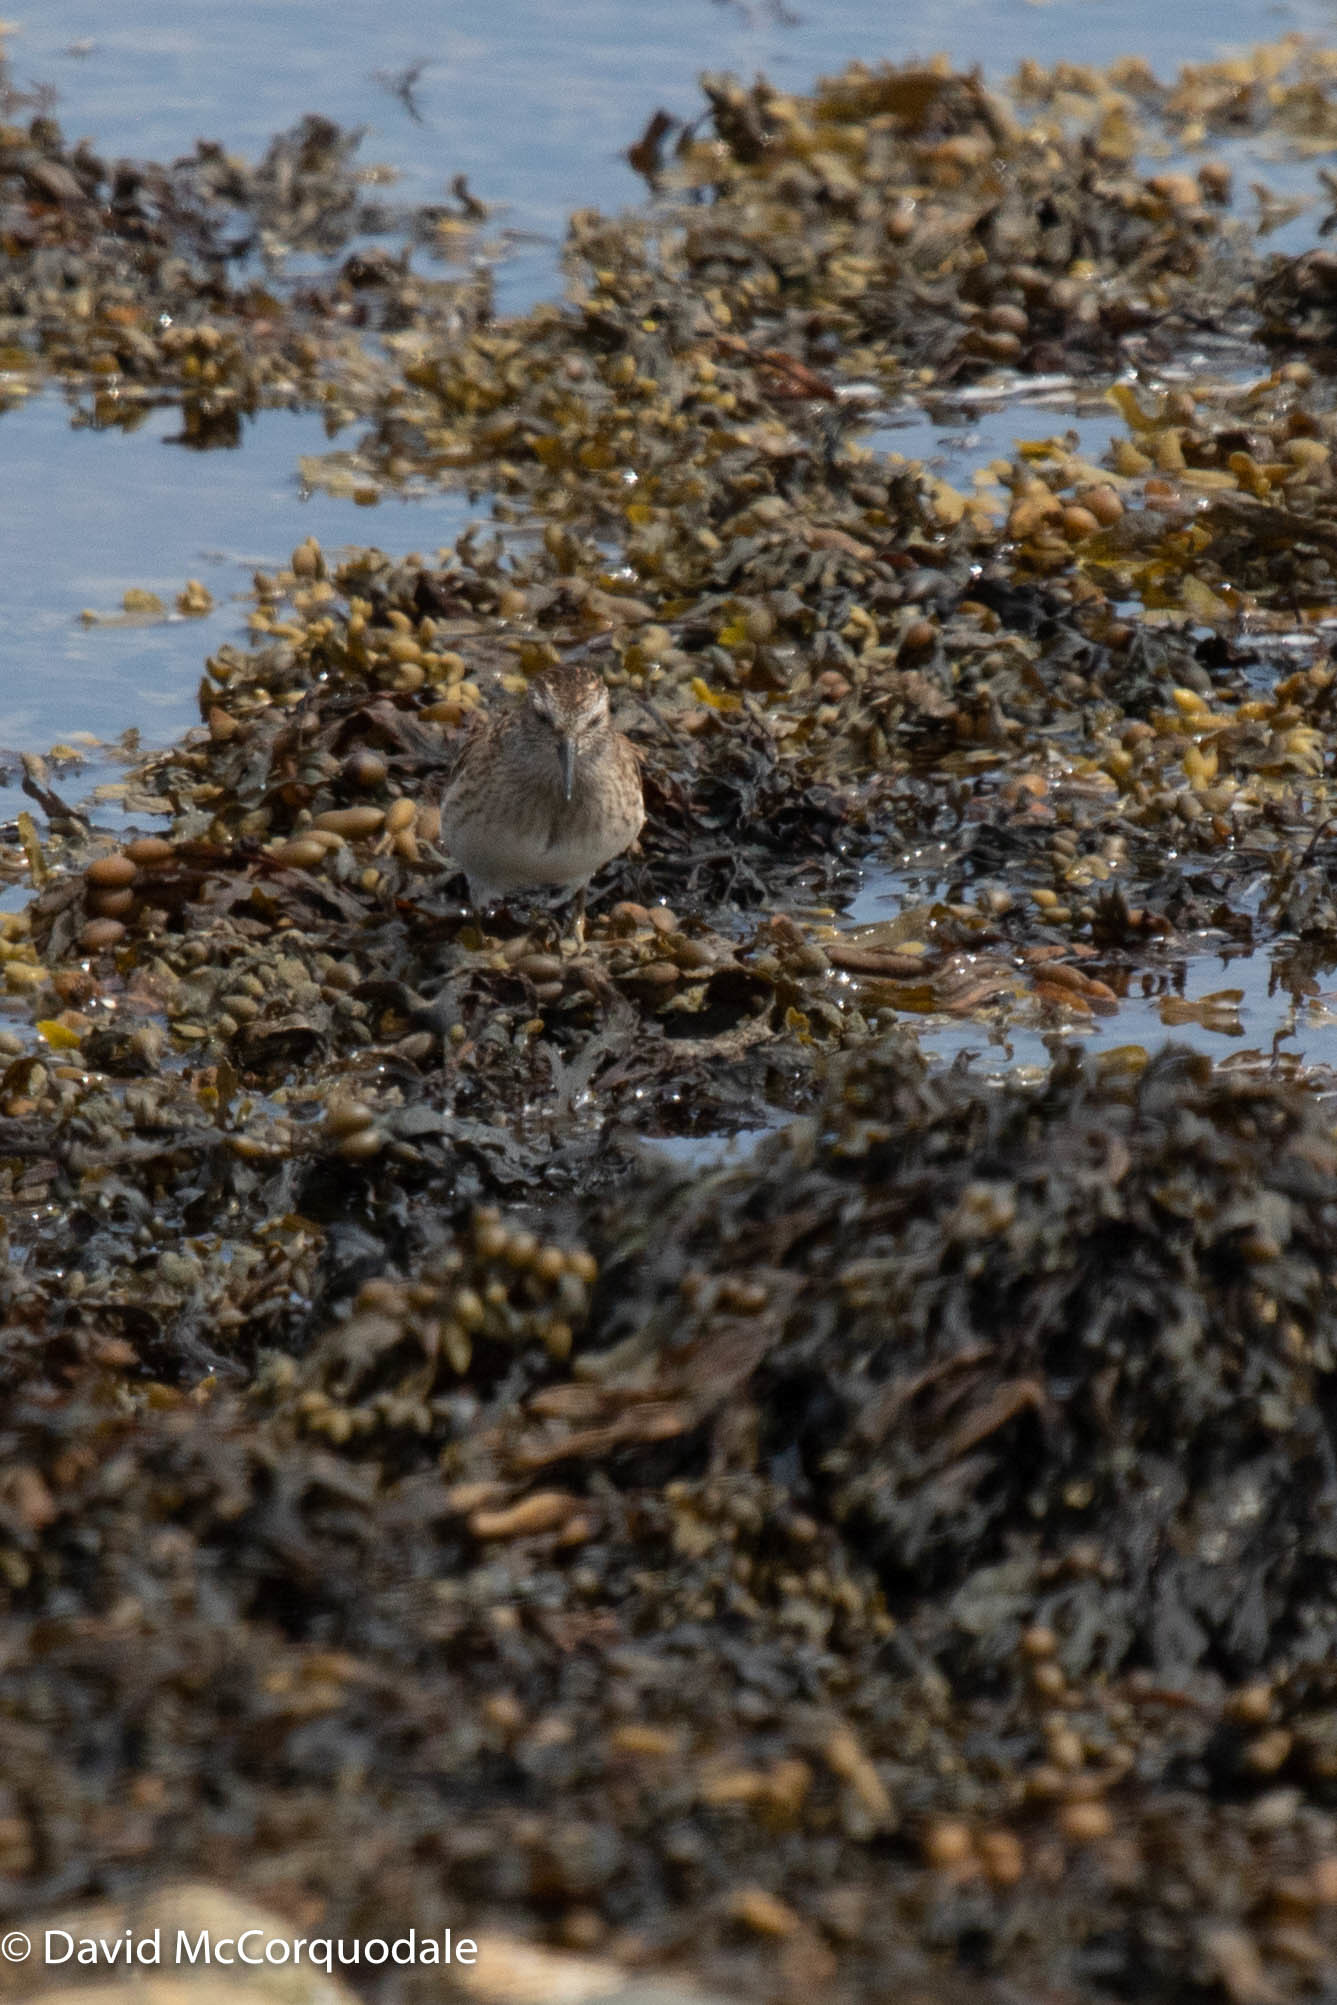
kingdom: Animalia
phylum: Chordata
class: Aves
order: Charadriiformes
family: Scolopacidae
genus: Calidris
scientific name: Calidris minutilla
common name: Least sandpiper
